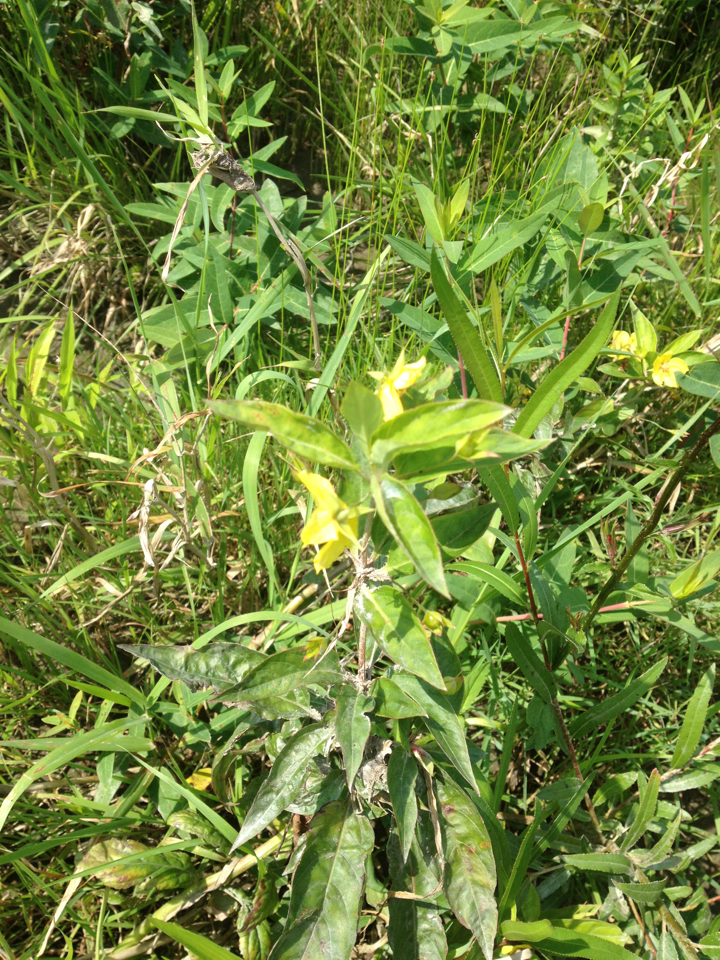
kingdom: Plantae
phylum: Tracheophyta
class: Magnoliopsida
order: Lamiales
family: Plantaginaceae
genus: Chelone
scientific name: Chelone glabra
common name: Snakehead
